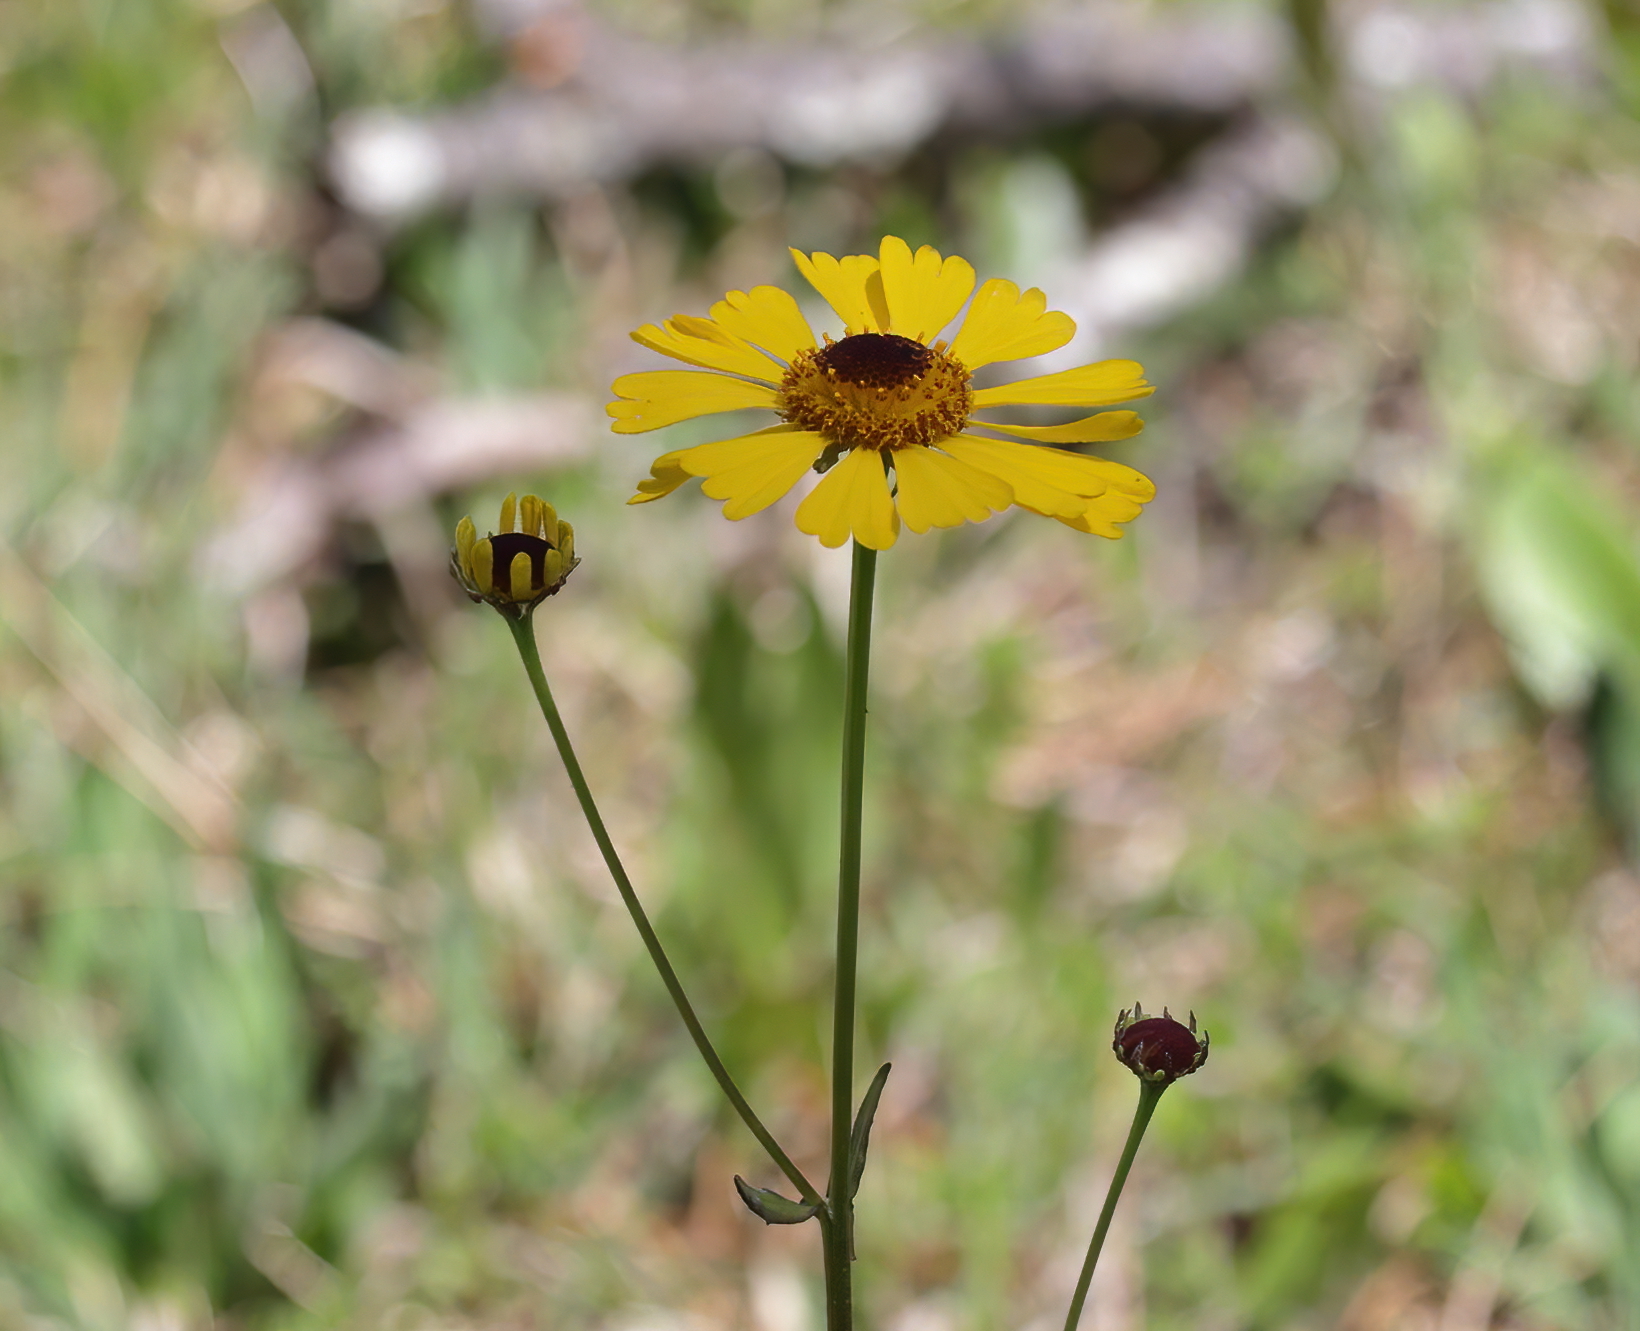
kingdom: Plantae
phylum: Tracheophyta
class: Magnoliopsida
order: Asterales
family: Asteraceae
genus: Helenium
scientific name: Helenium brevifolium
